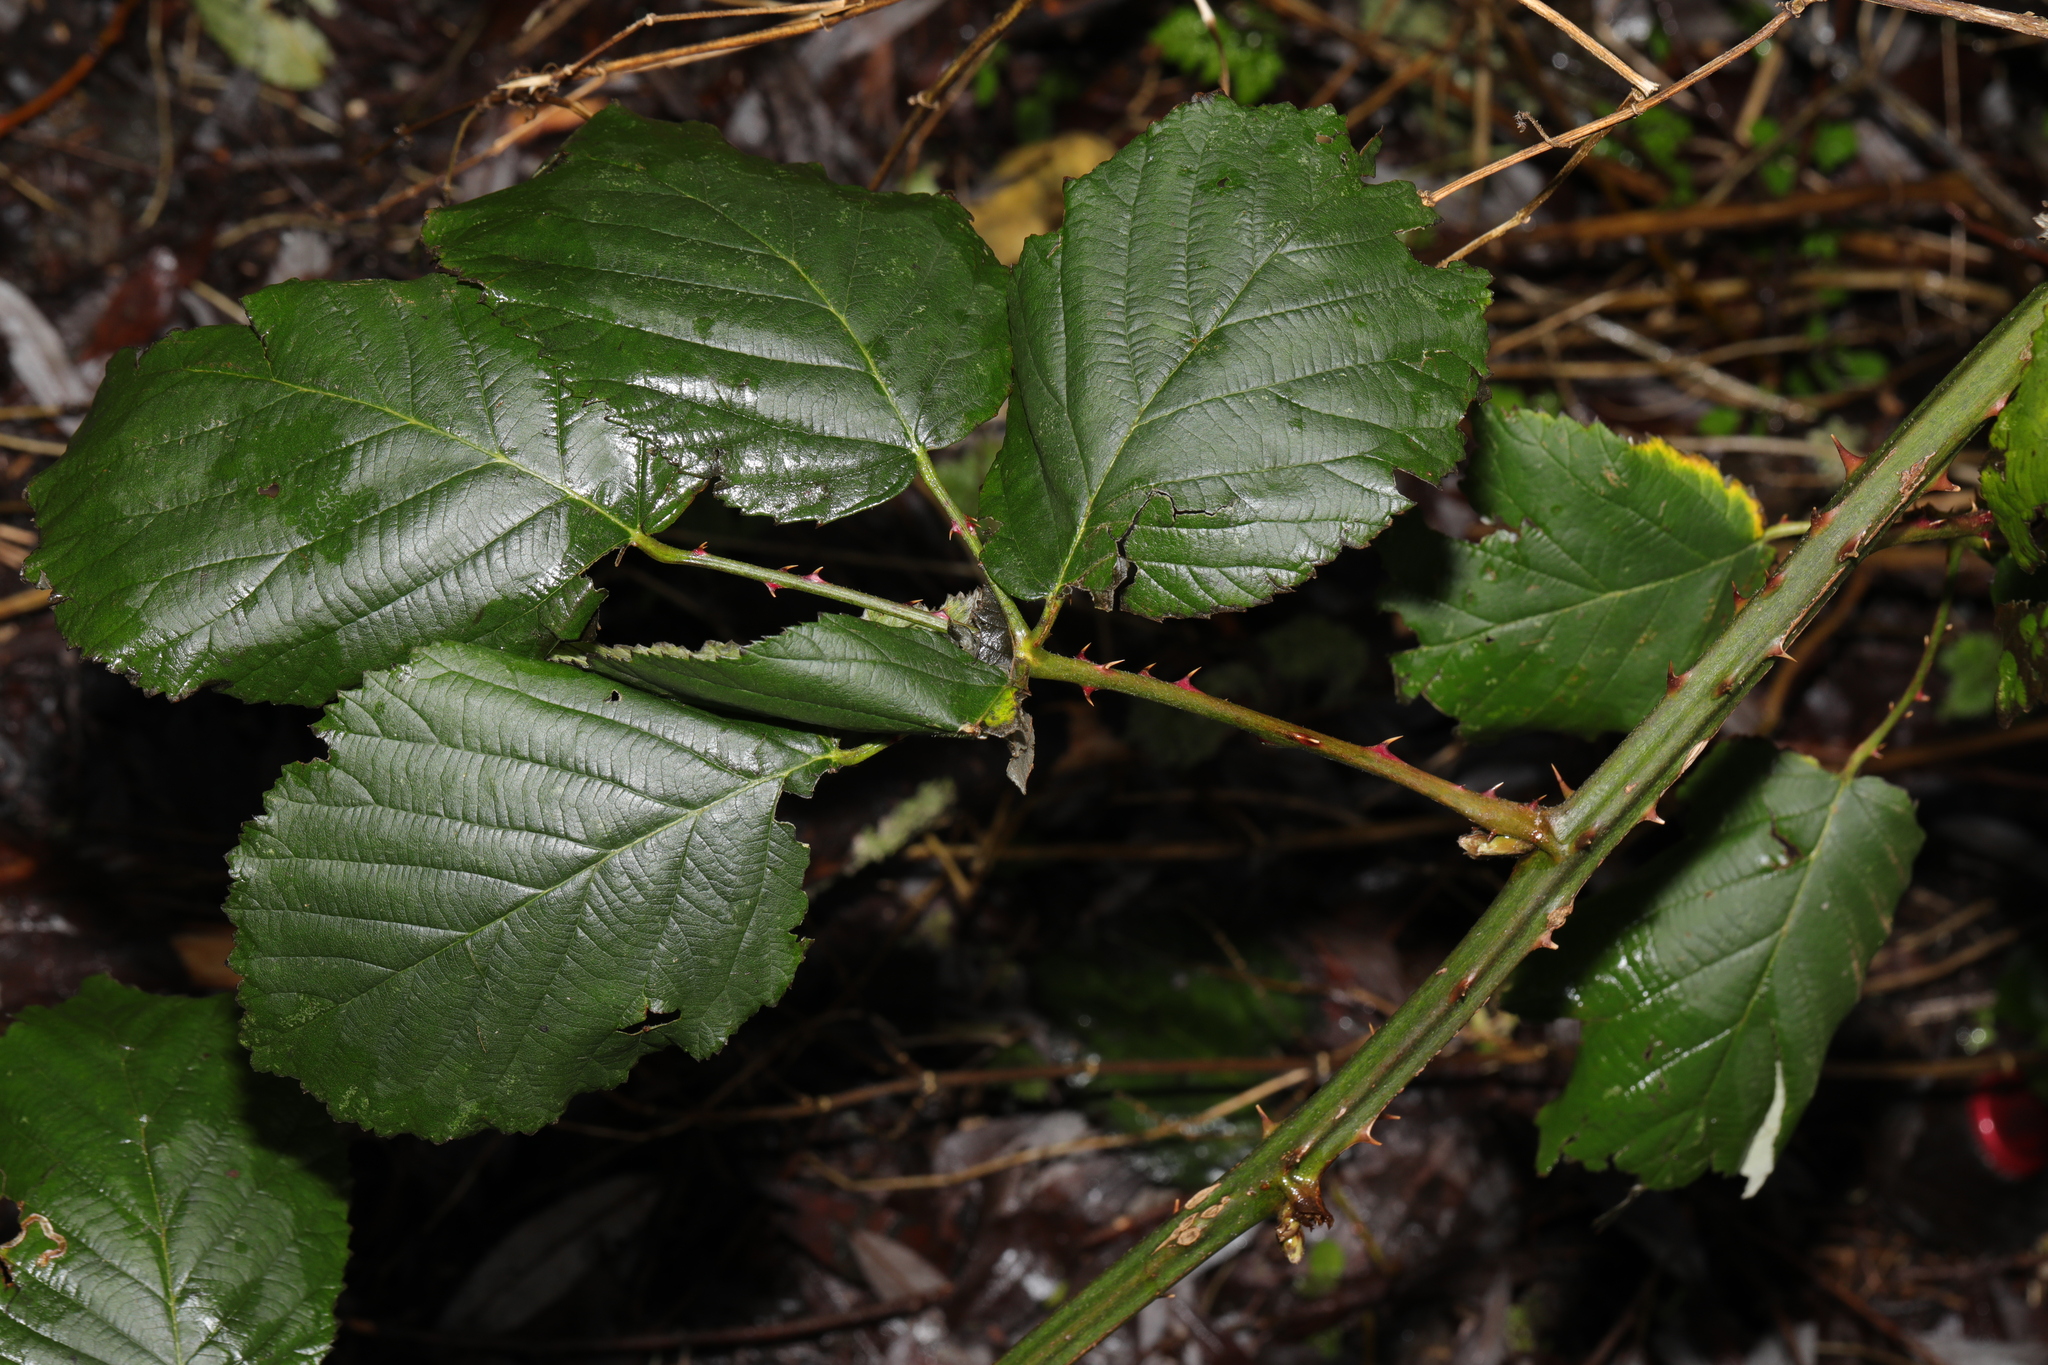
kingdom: Plantae
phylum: Tracheophyta
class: Magnoliopsida
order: Rosales
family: Rosaceae
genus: Rubus
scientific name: Rubus armeniacus
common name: Himalayan blackberry
